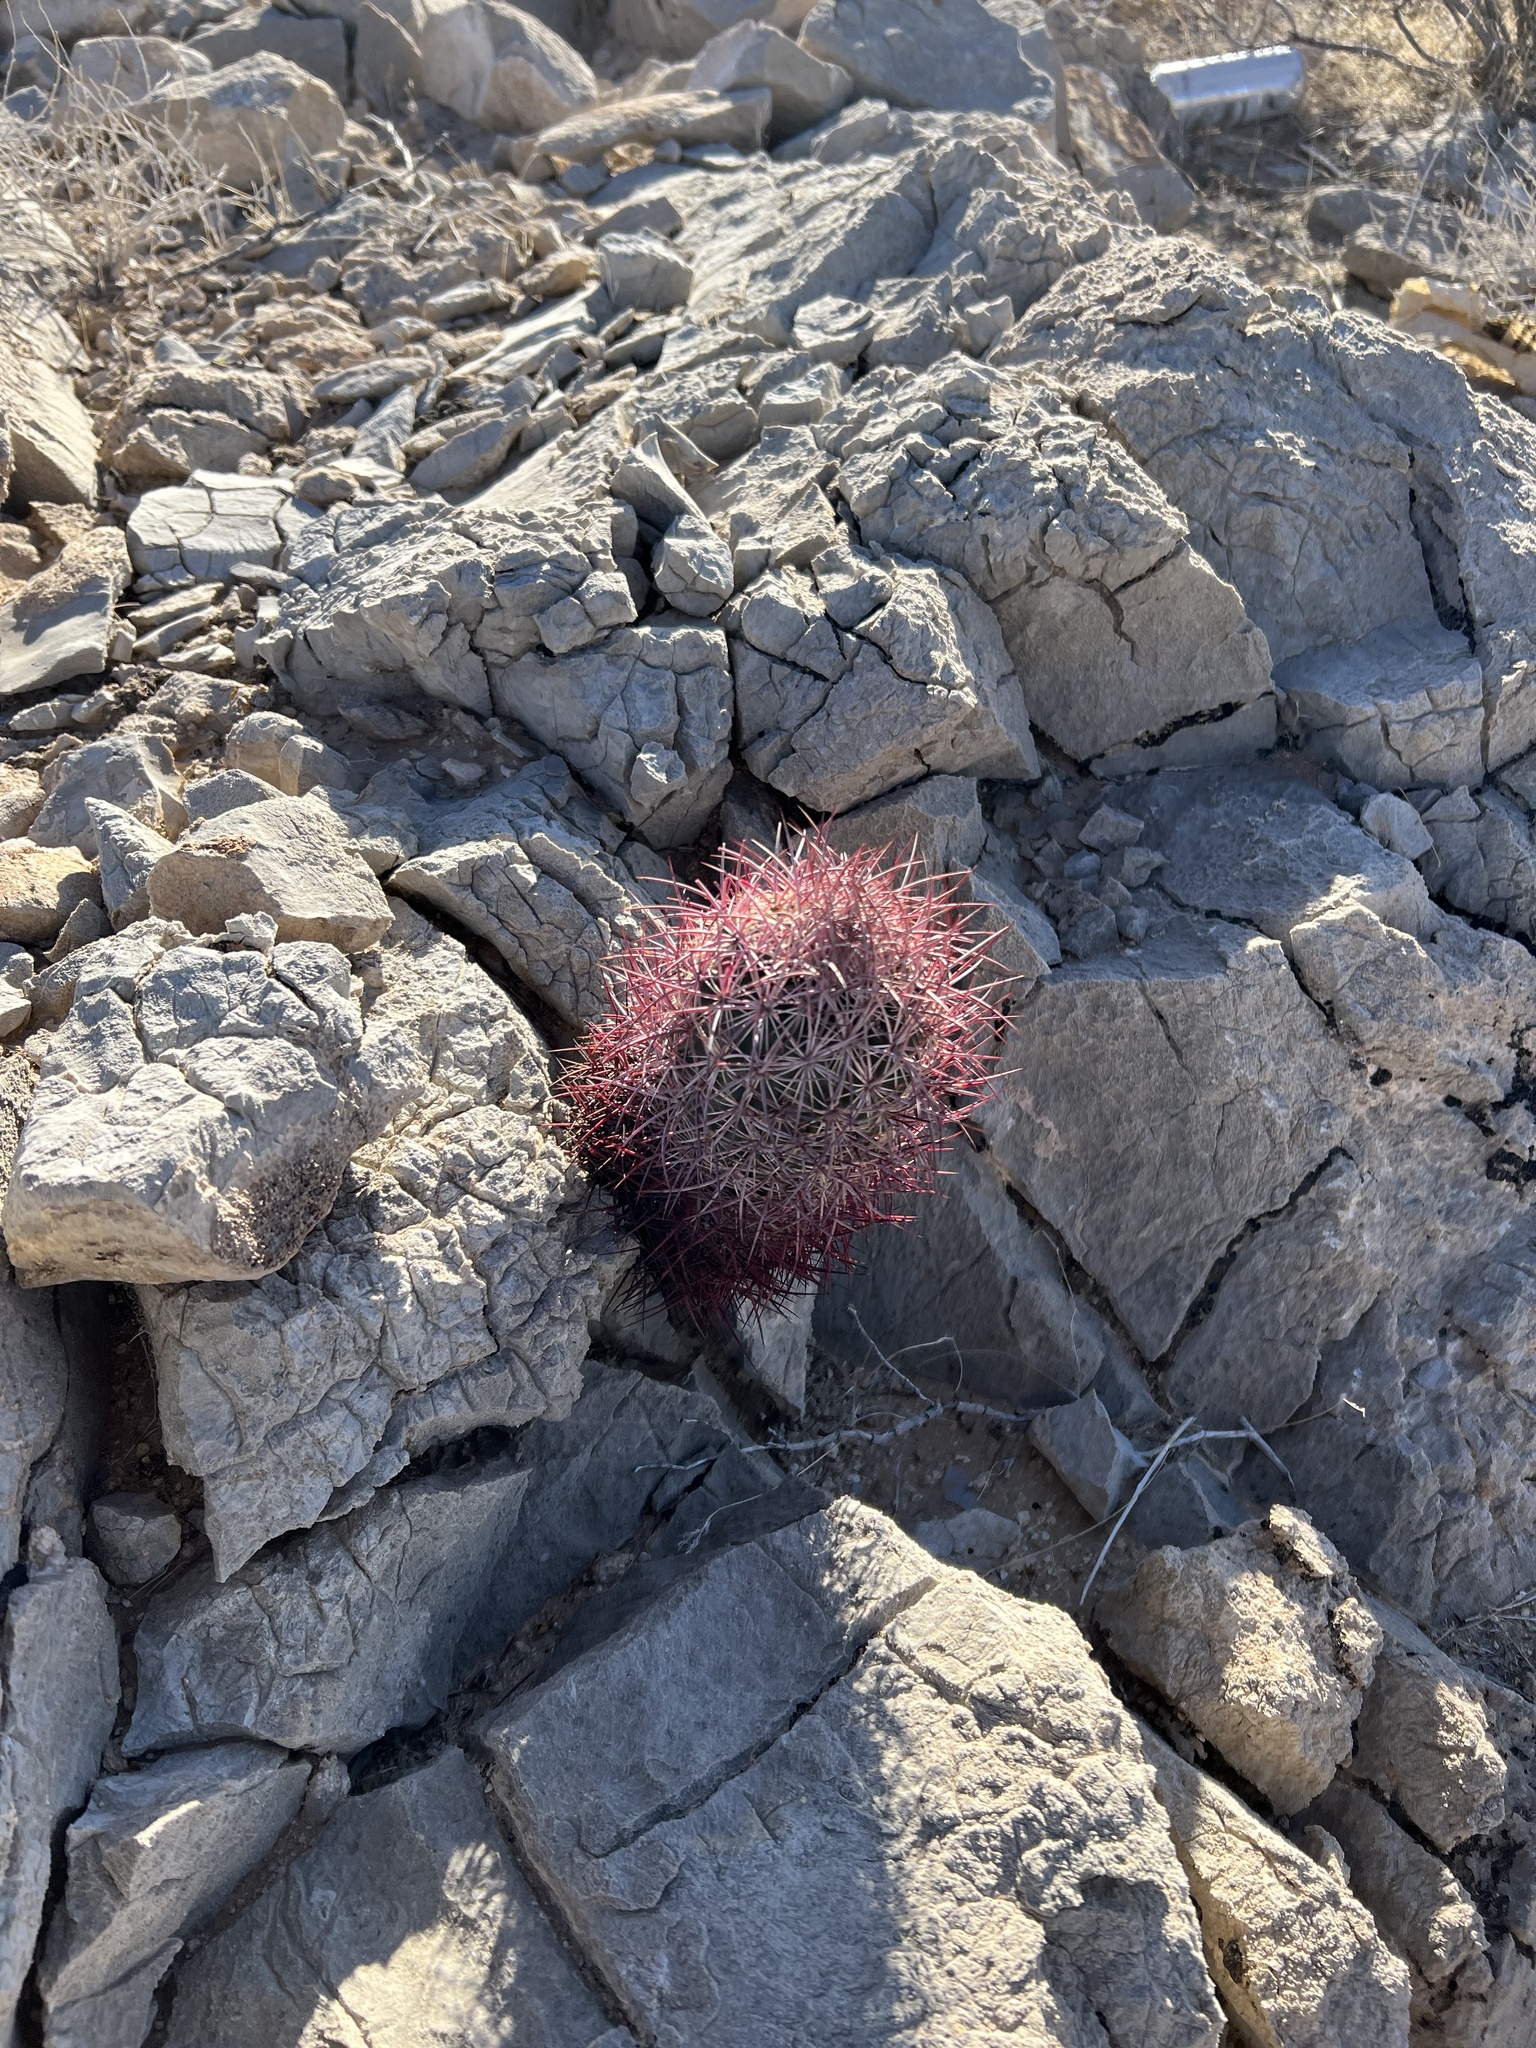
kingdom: Plantae
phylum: Tracheophyta
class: Magnoliopsida
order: Caryophyllales
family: Cactaceae
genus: Sclerocactus
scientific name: Sclerocactus johnsonii
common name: Eight-spine fishhook cactus
